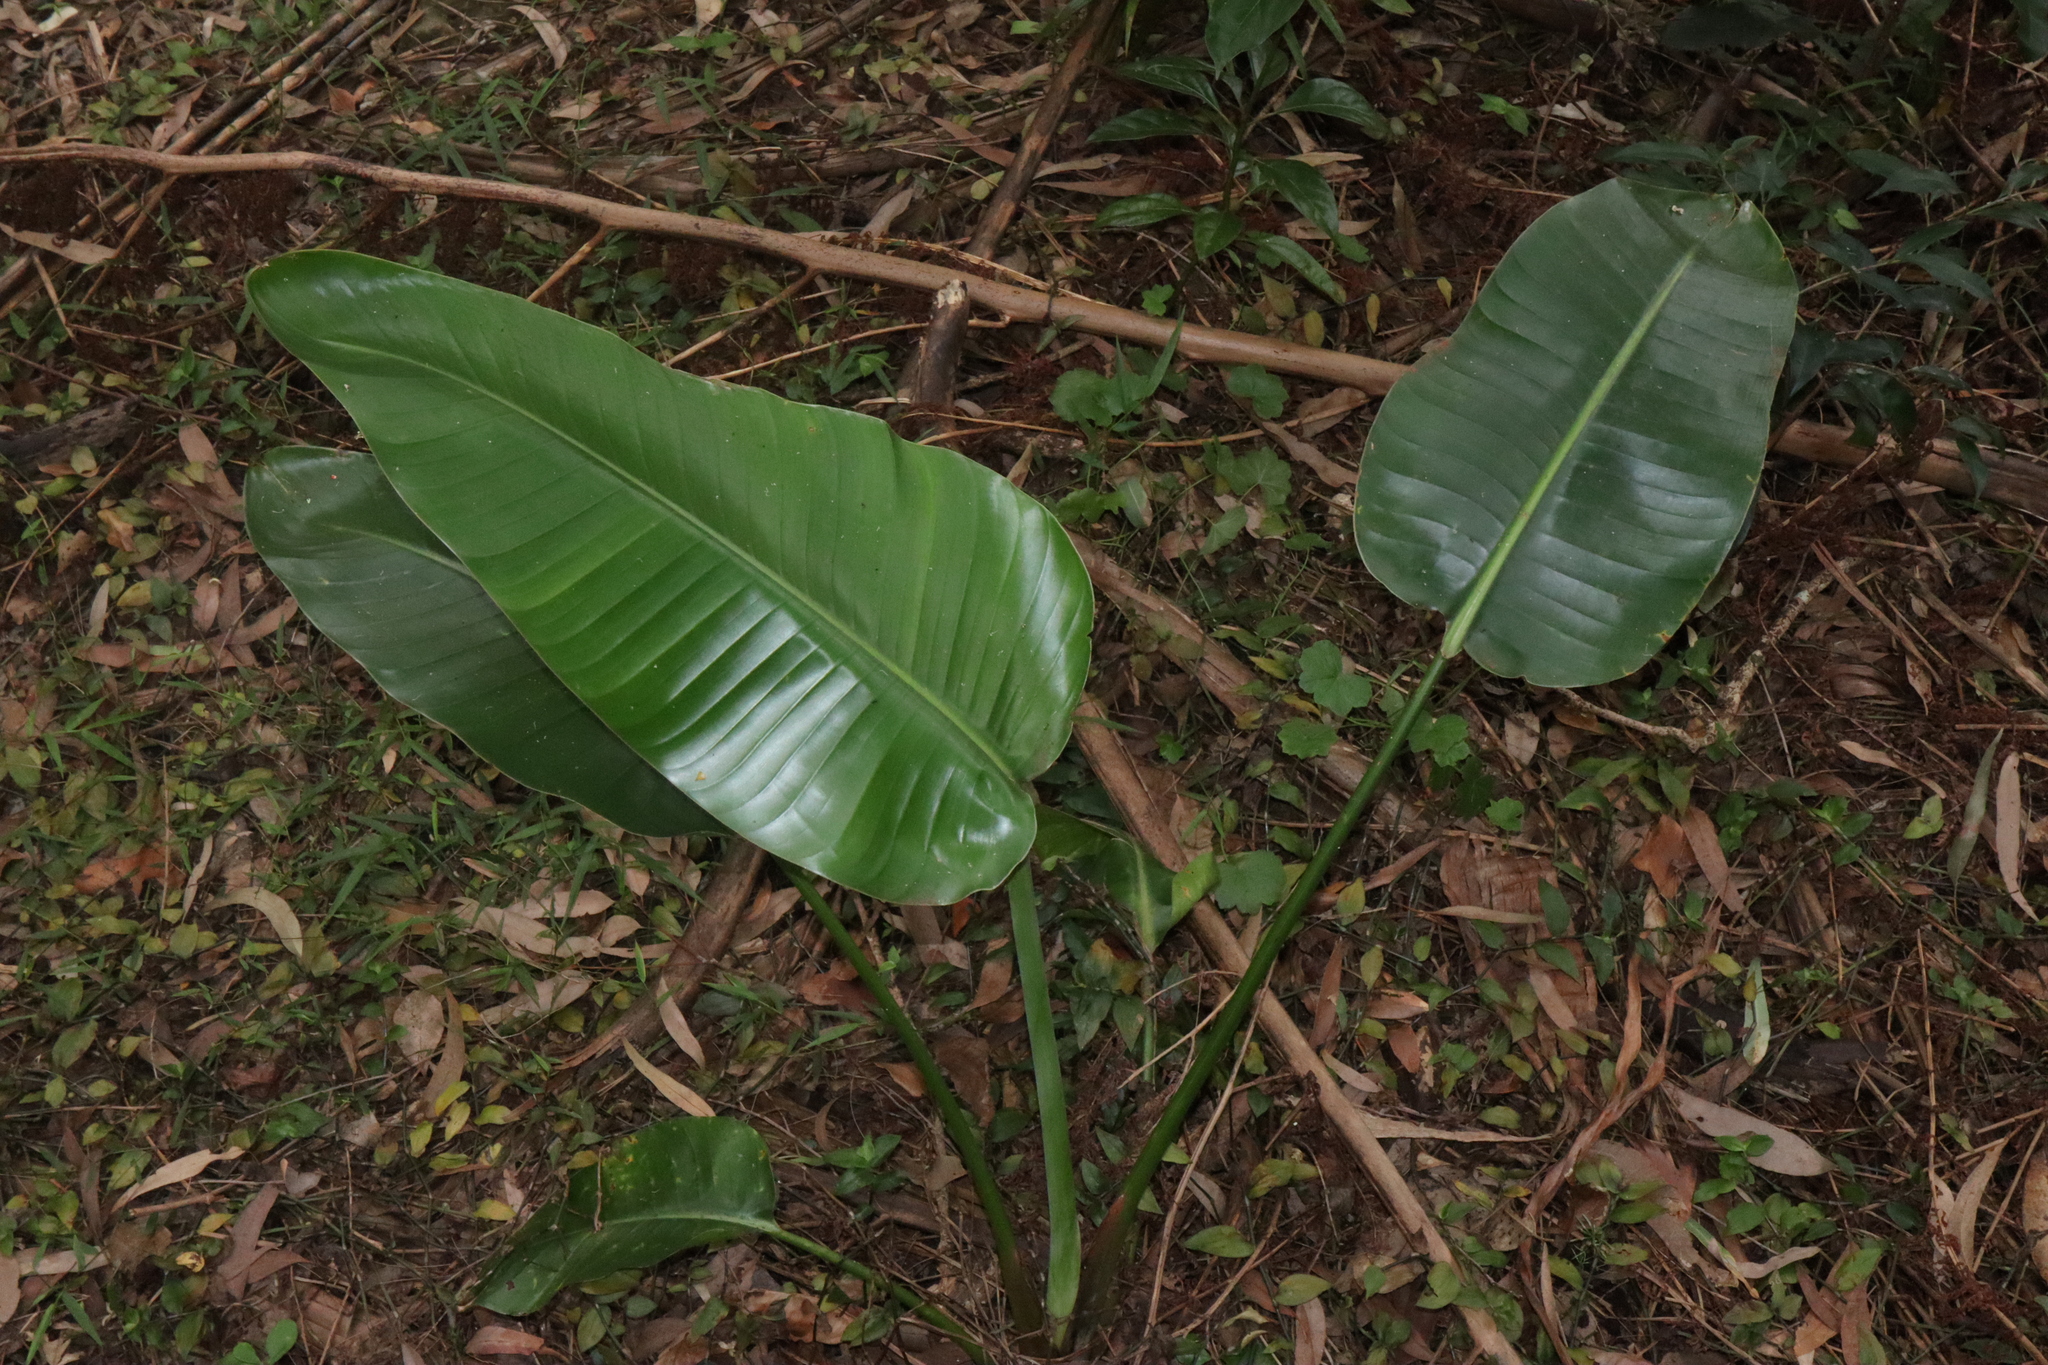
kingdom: Plantae
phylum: Tracheophyta
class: Liliopsida
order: Zingiberales
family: Strelitziaceae
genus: Strelitzia
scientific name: Strelitzia nicolai
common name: Bird-of-paradise tree
